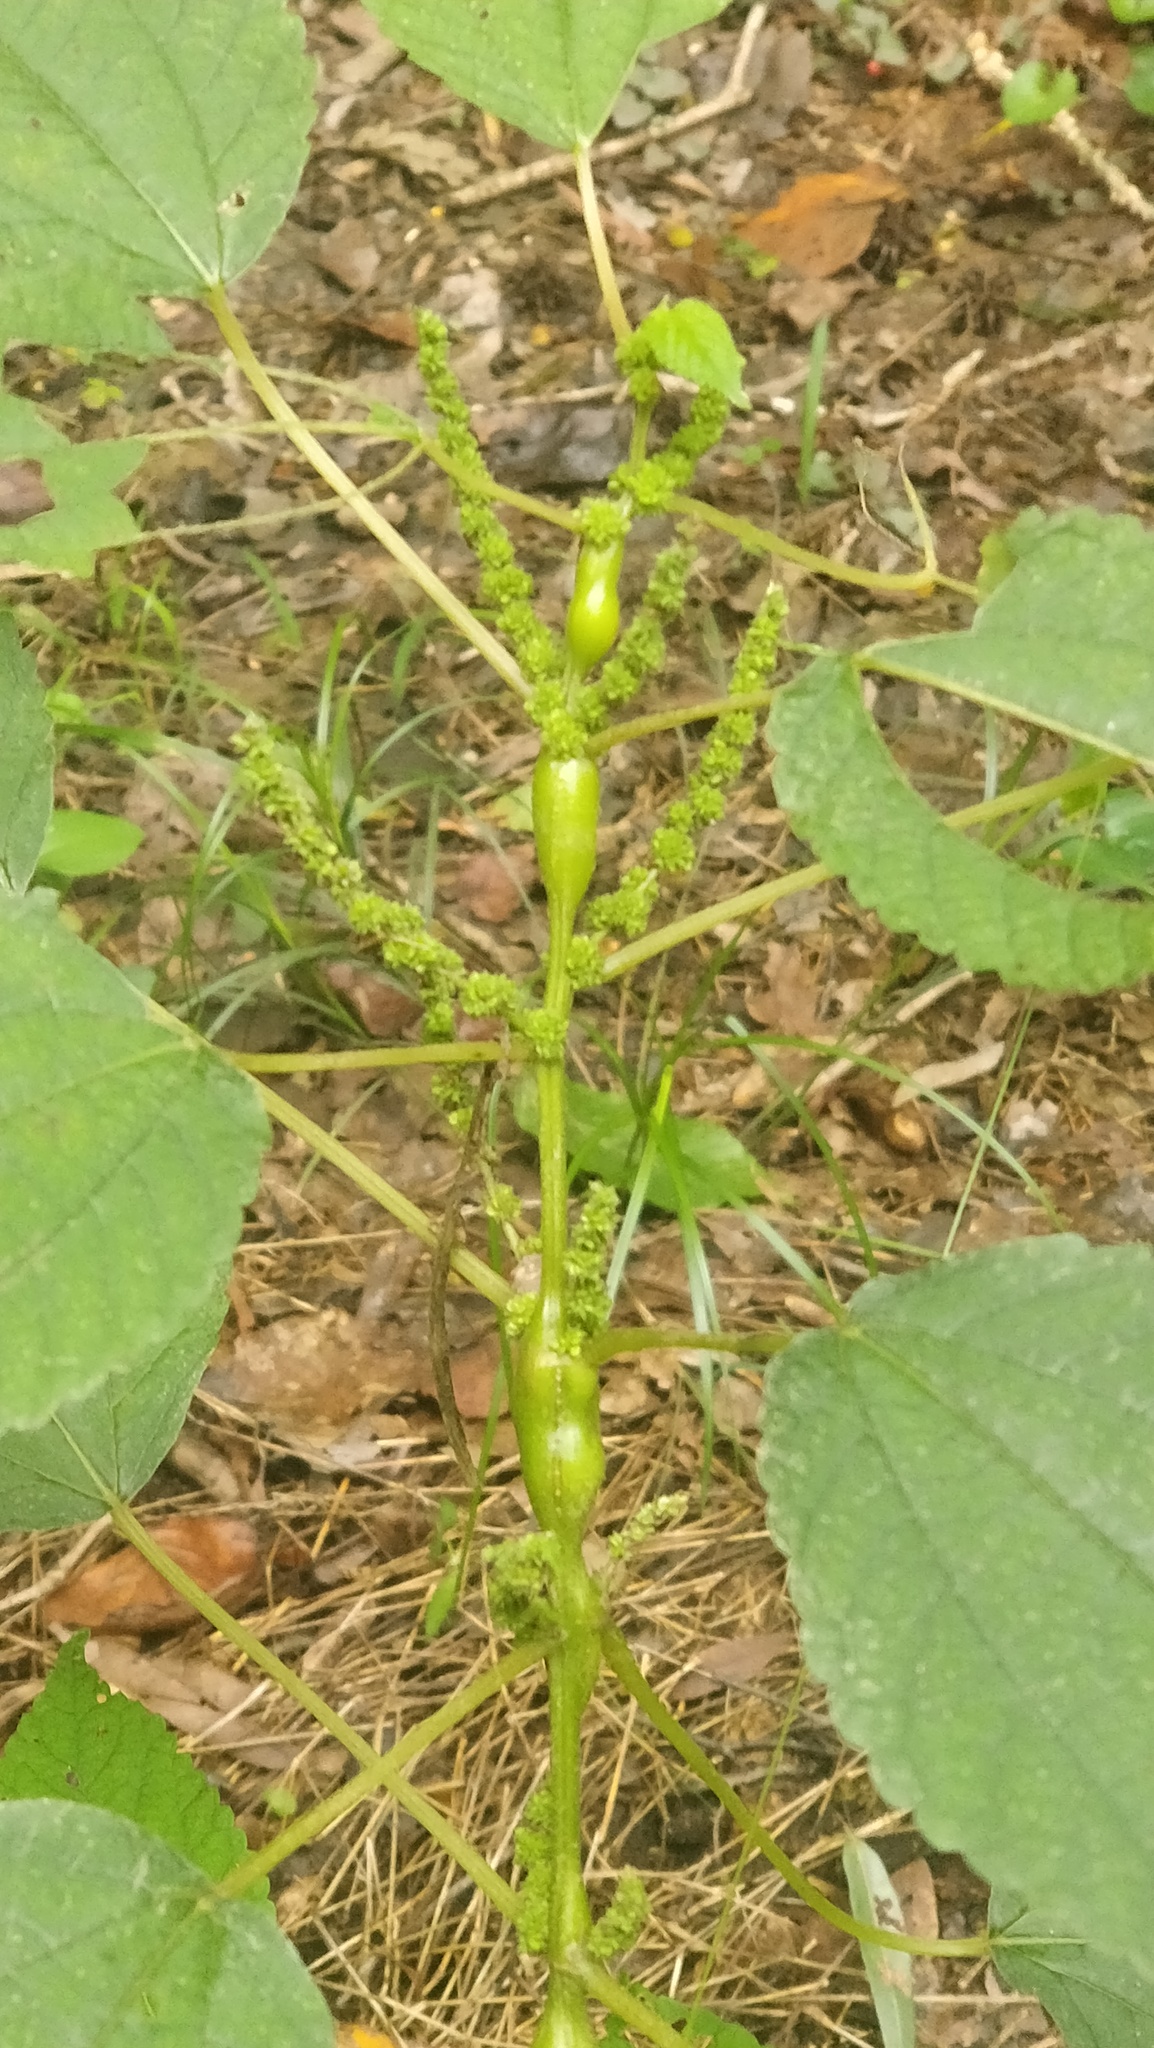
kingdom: Animalia
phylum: Arthropoda
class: Insecta
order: Diptera
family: Cecidomyiidae
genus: Neolasioptera
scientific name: Neolasioptera boehmeriae
